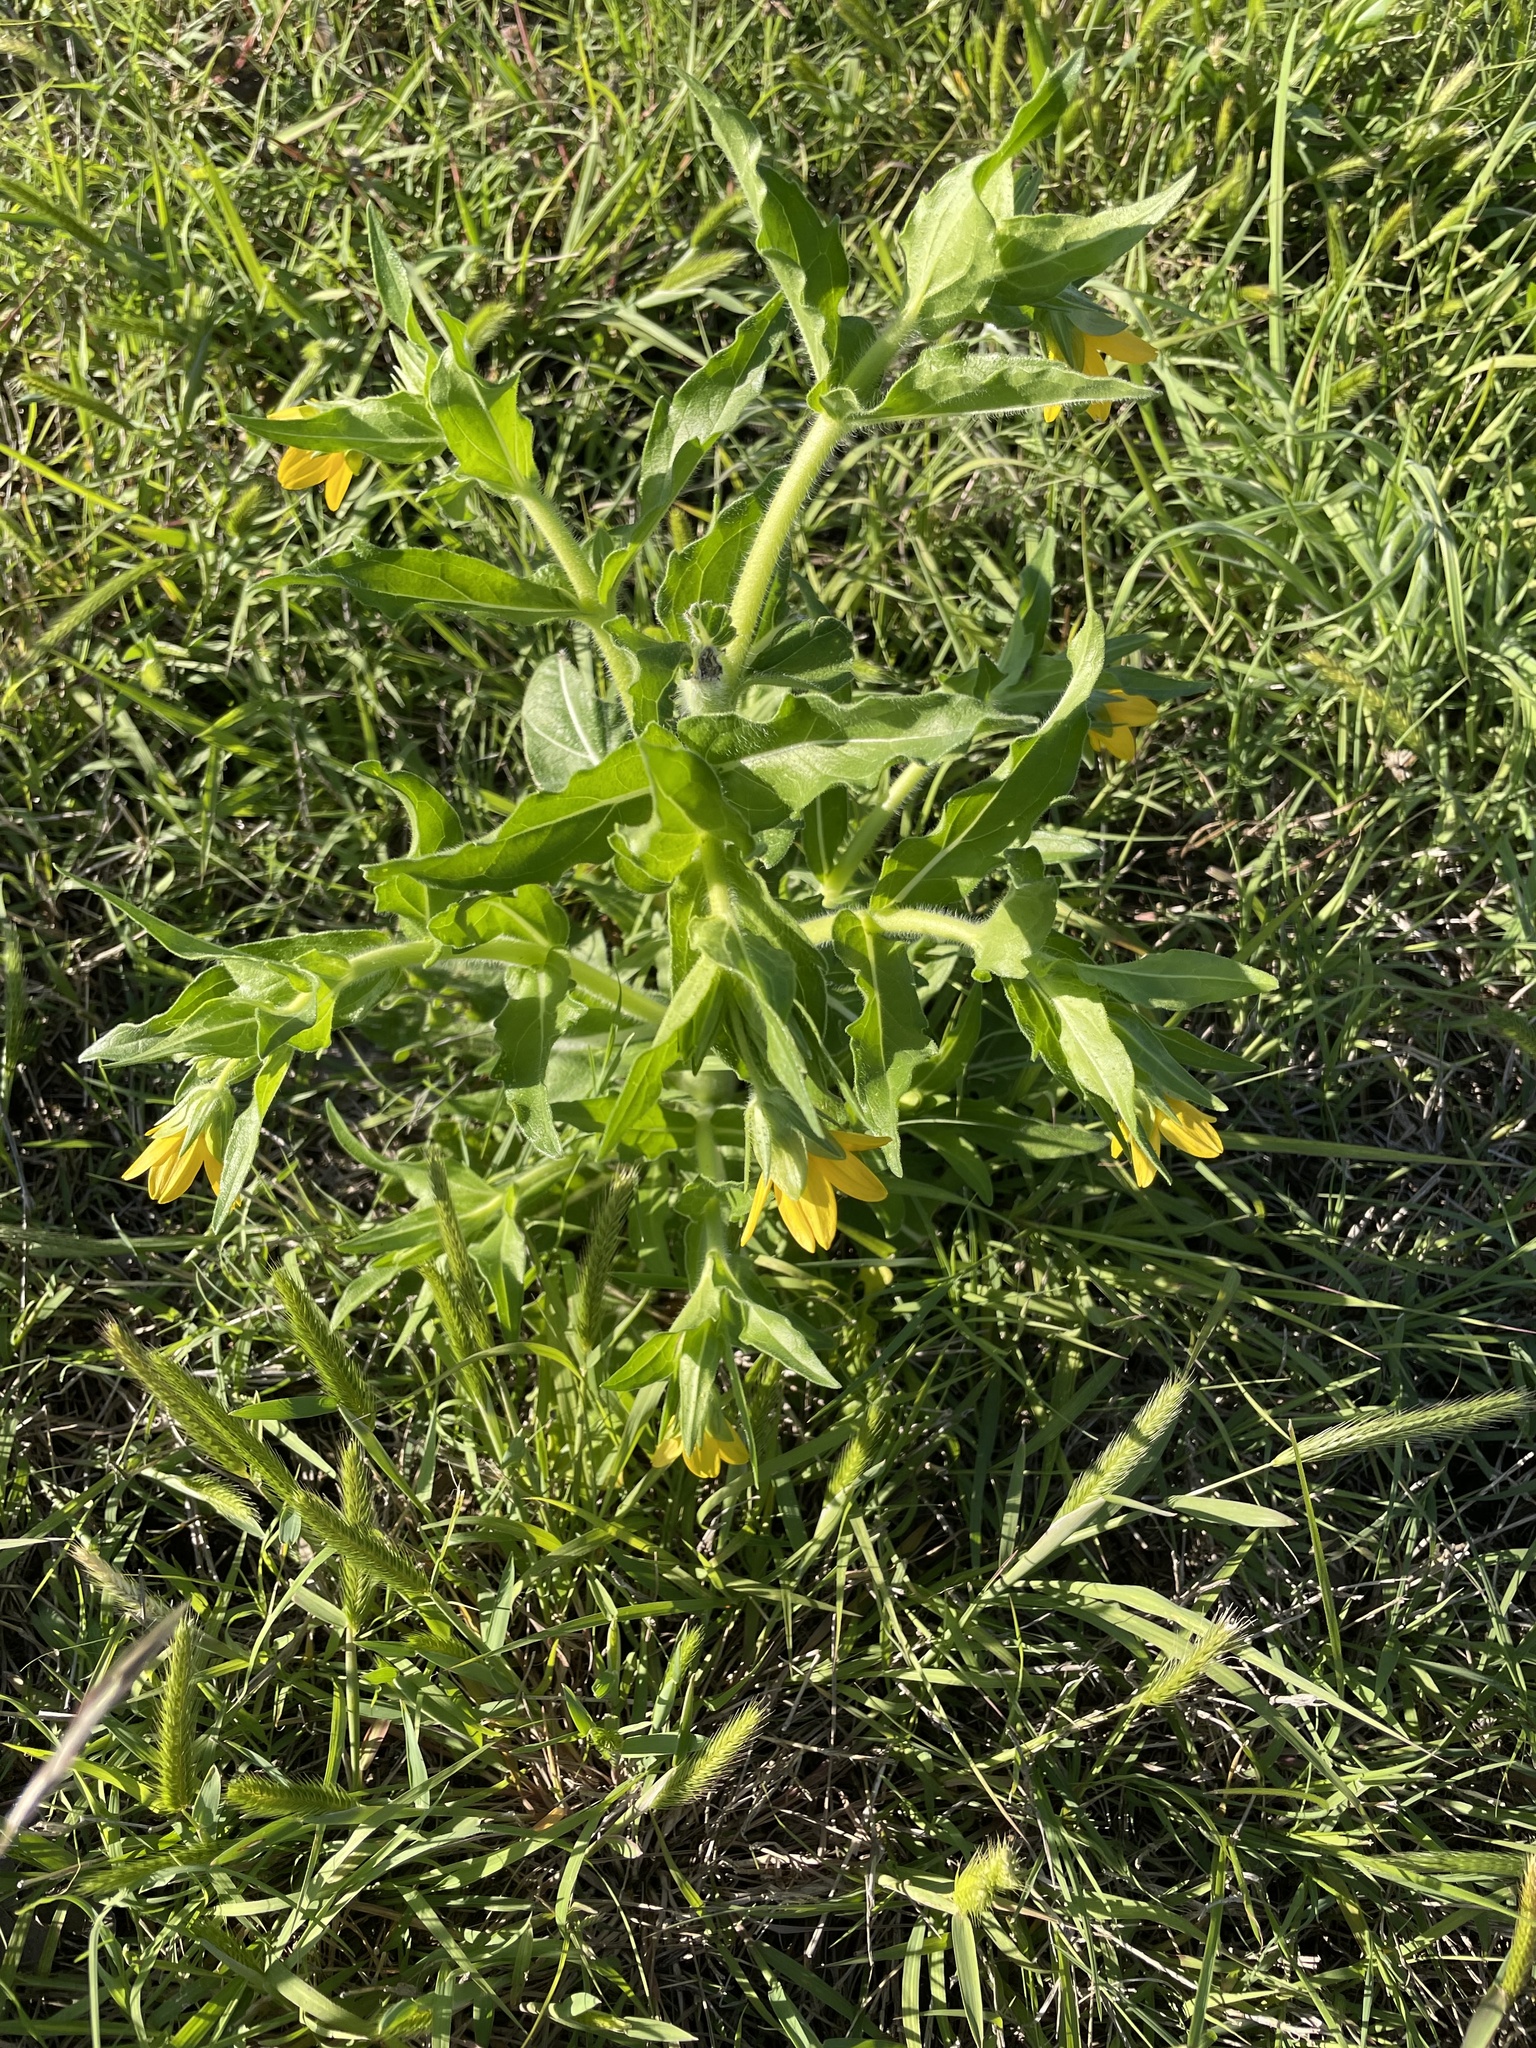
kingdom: Plantae
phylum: Tracheophyta
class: Magnoliopsida
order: Asterales
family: Asteraceae
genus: Lindheimera
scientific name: Lindheimera texana
